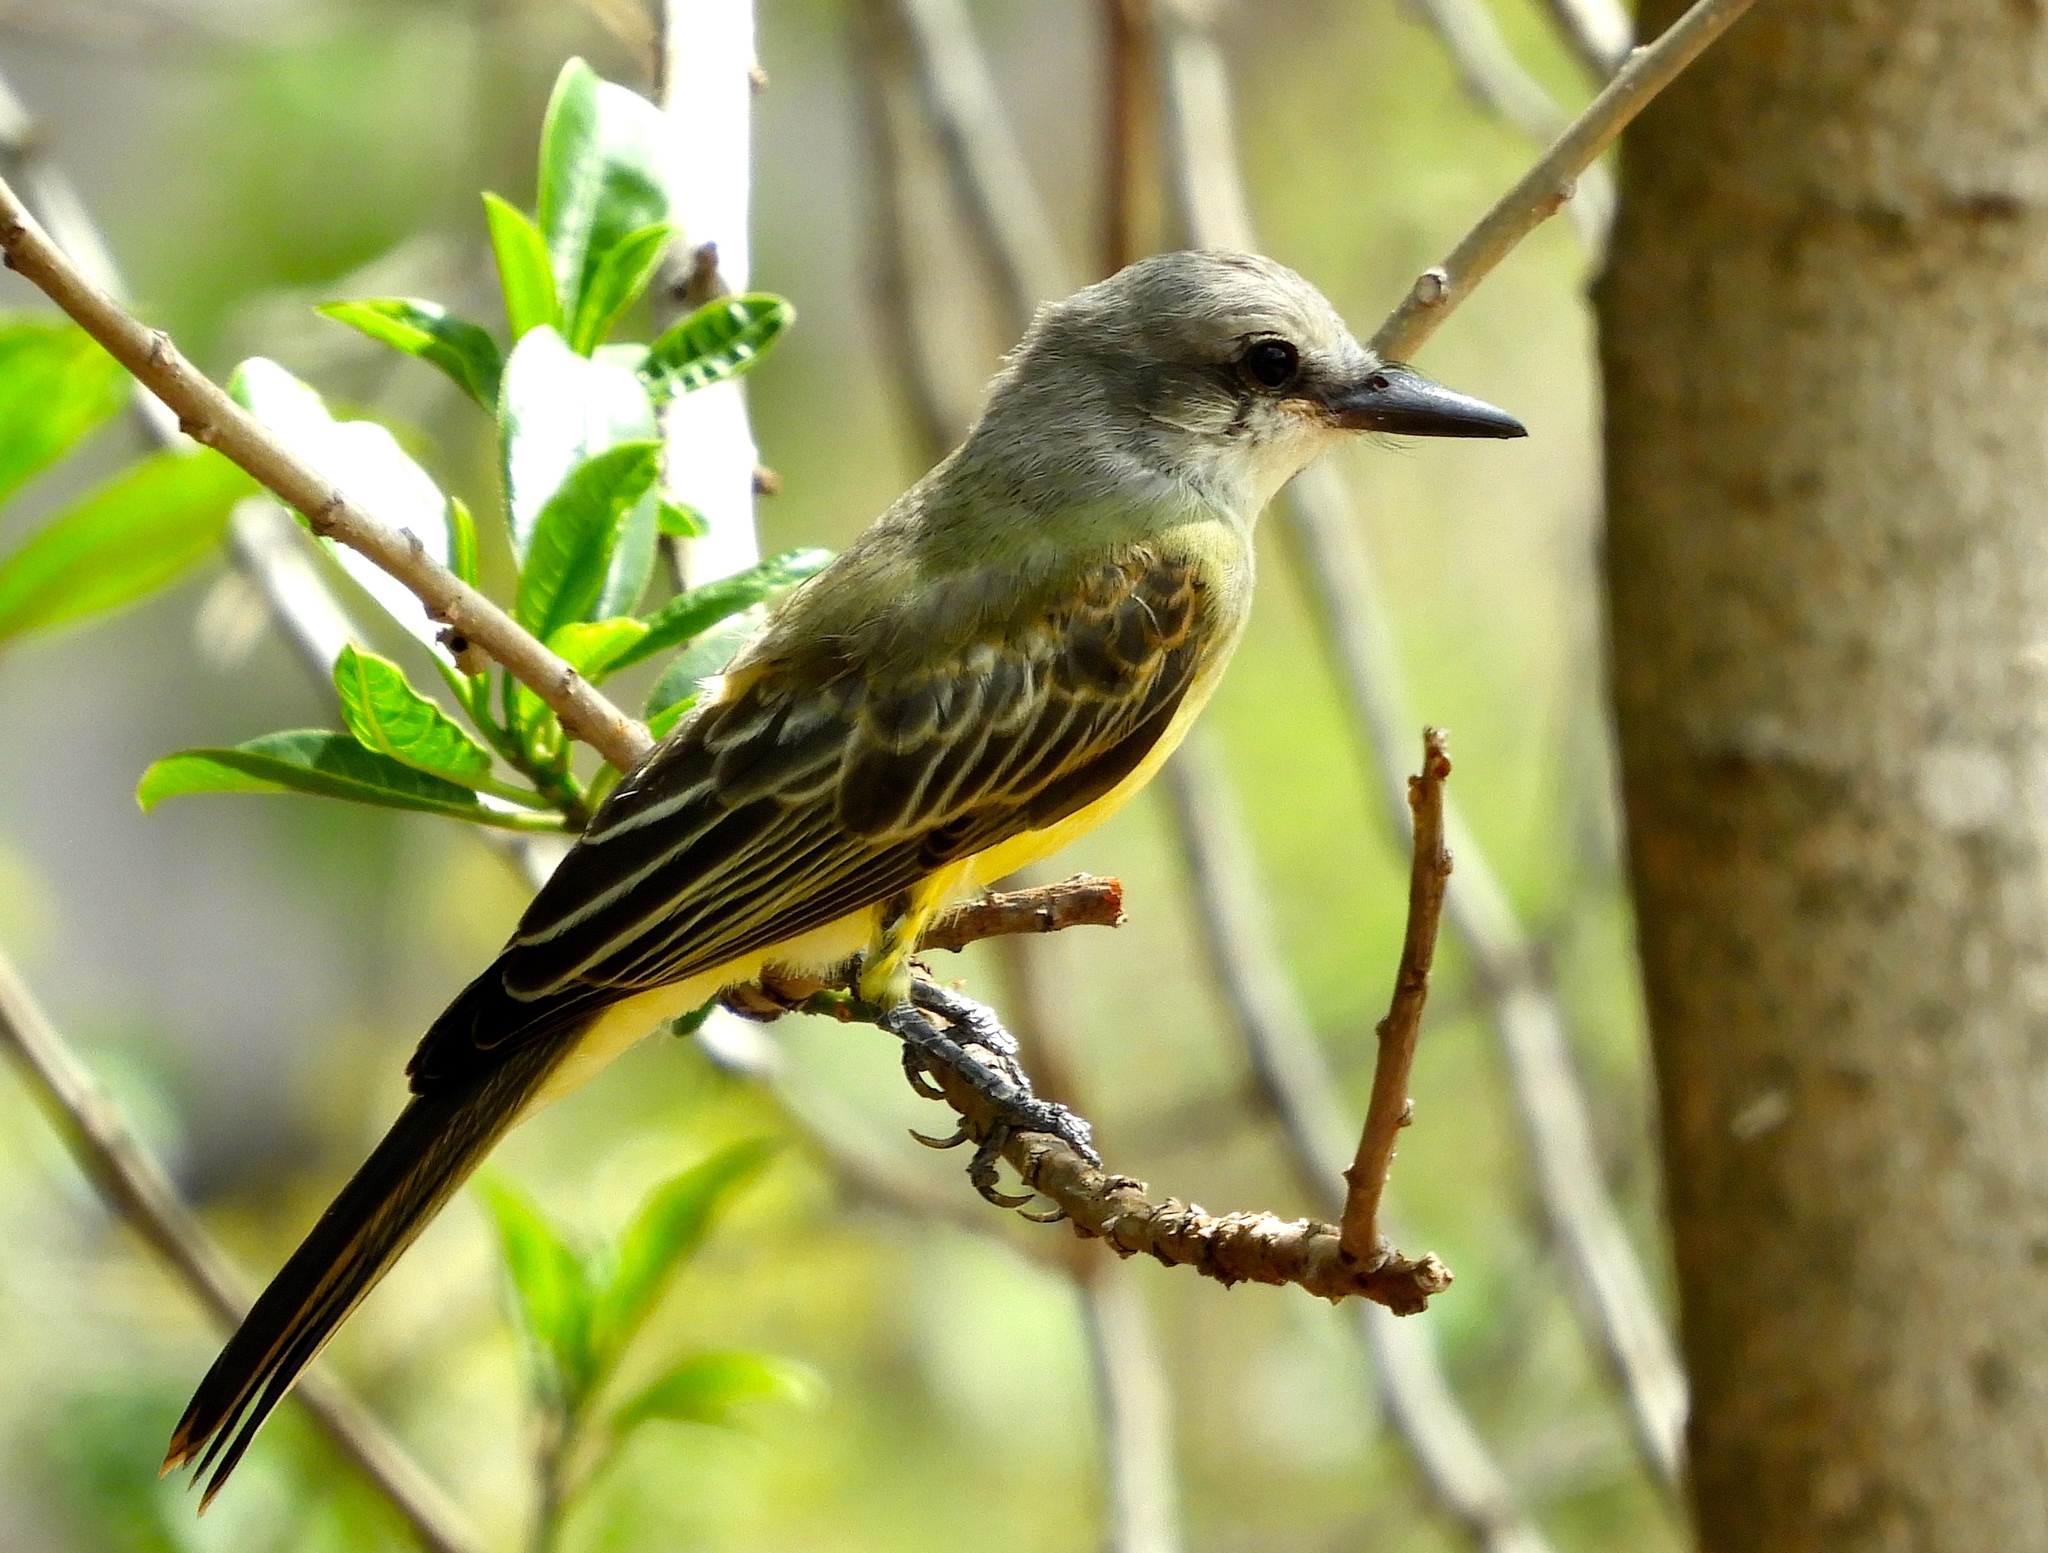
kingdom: Animalia
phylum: Chordata
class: Aves
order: Passeriformes
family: Tyrannidae
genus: Tyrannus
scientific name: Tyrannus melancholicus
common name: Tropical kingbird
